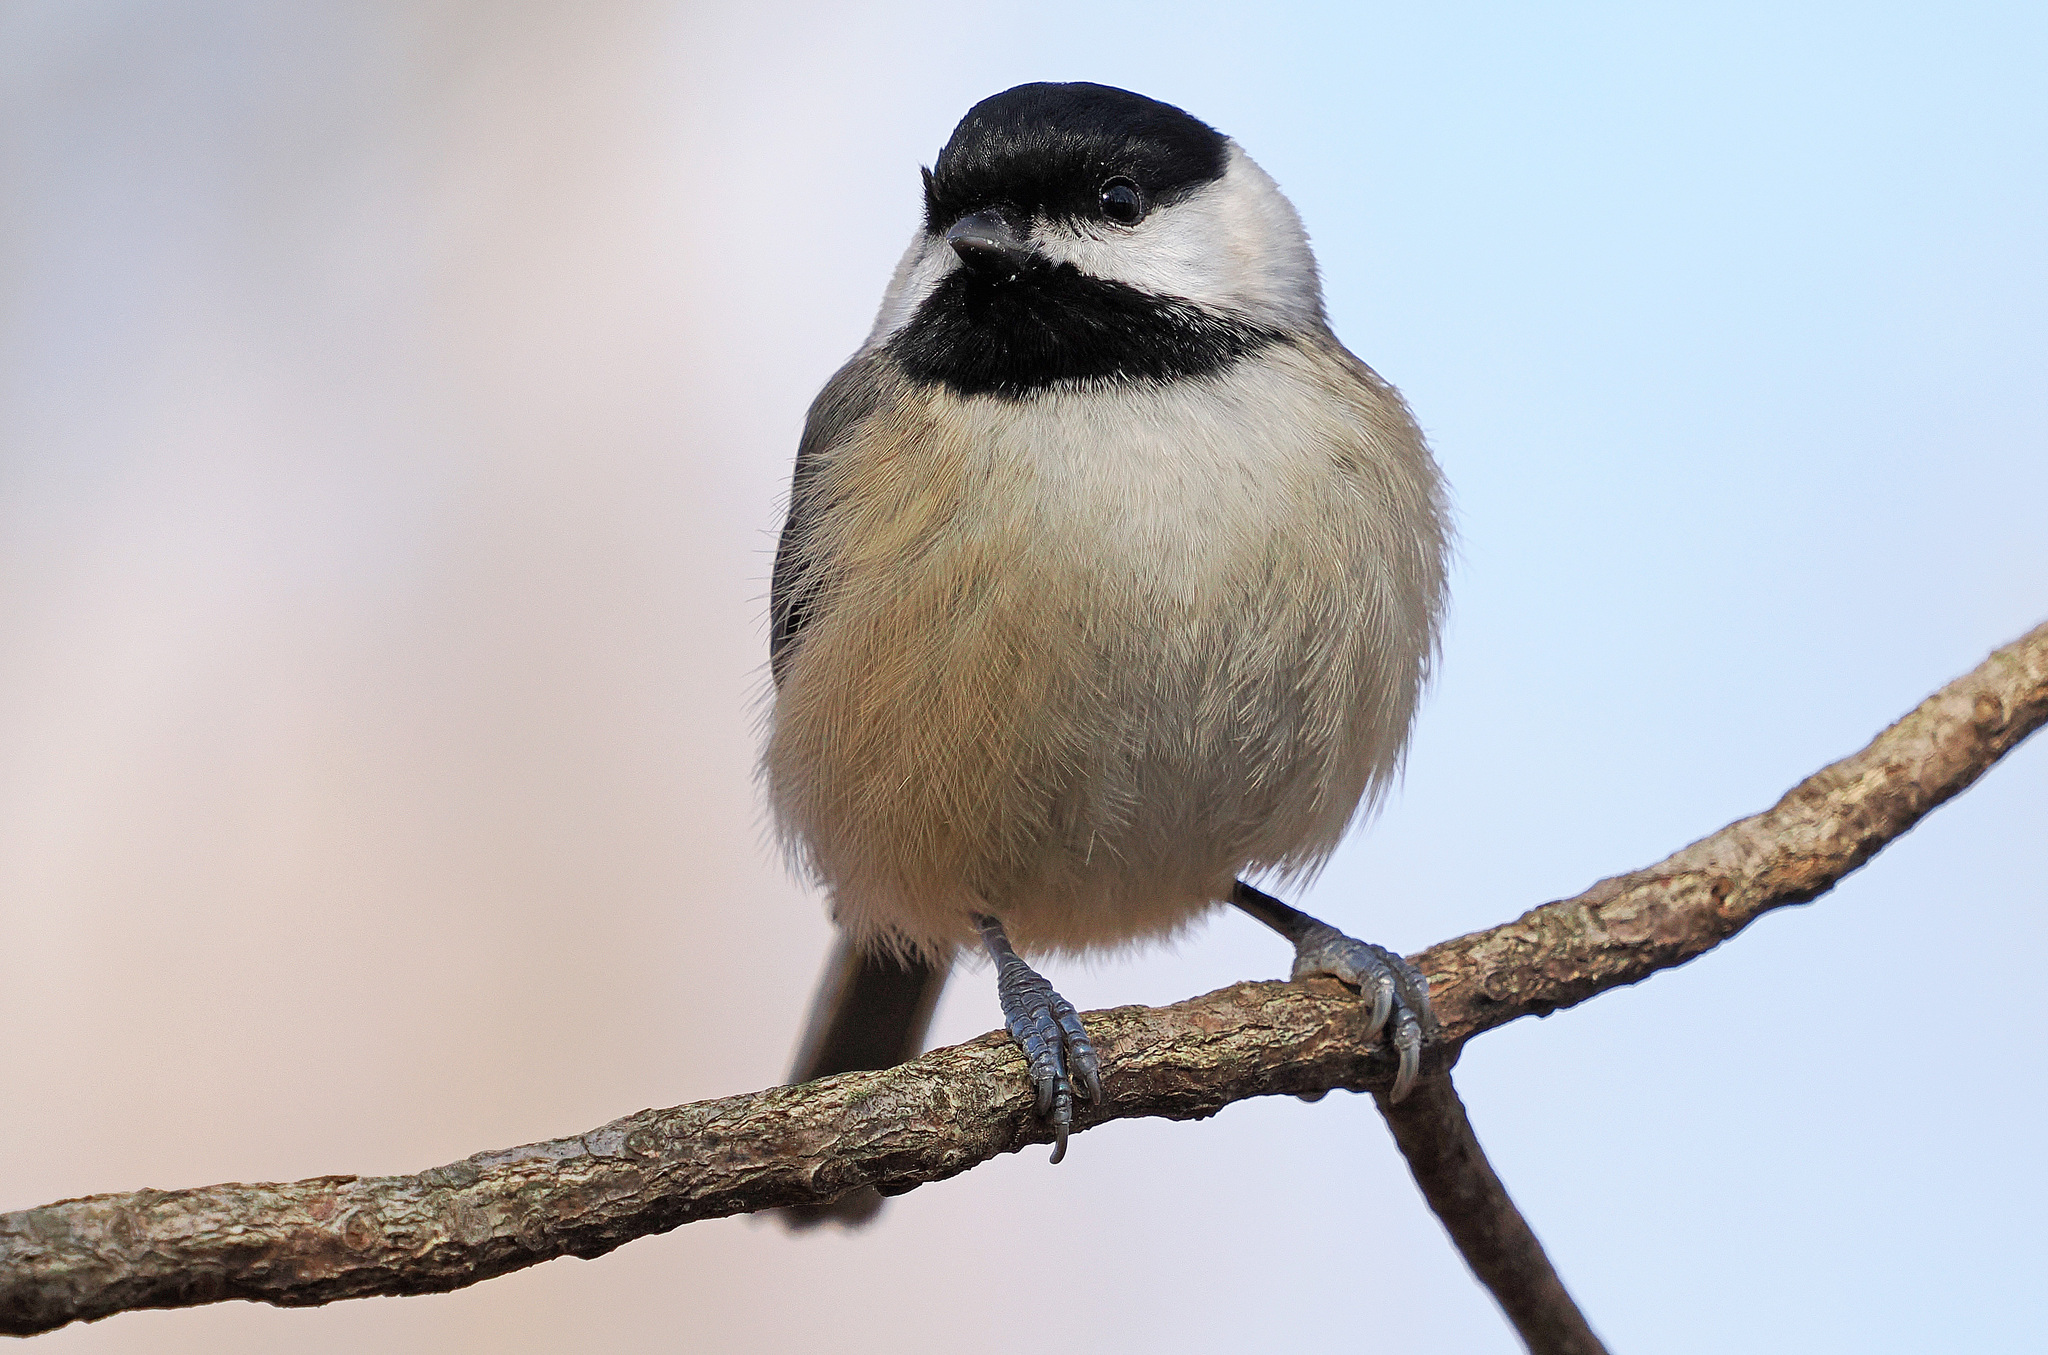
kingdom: Animalia
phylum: Chordata
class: Aves
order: Passeriformes
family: Paridae
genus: Poecile
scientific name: Poecile carolinensis
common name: Carolina chickadee
